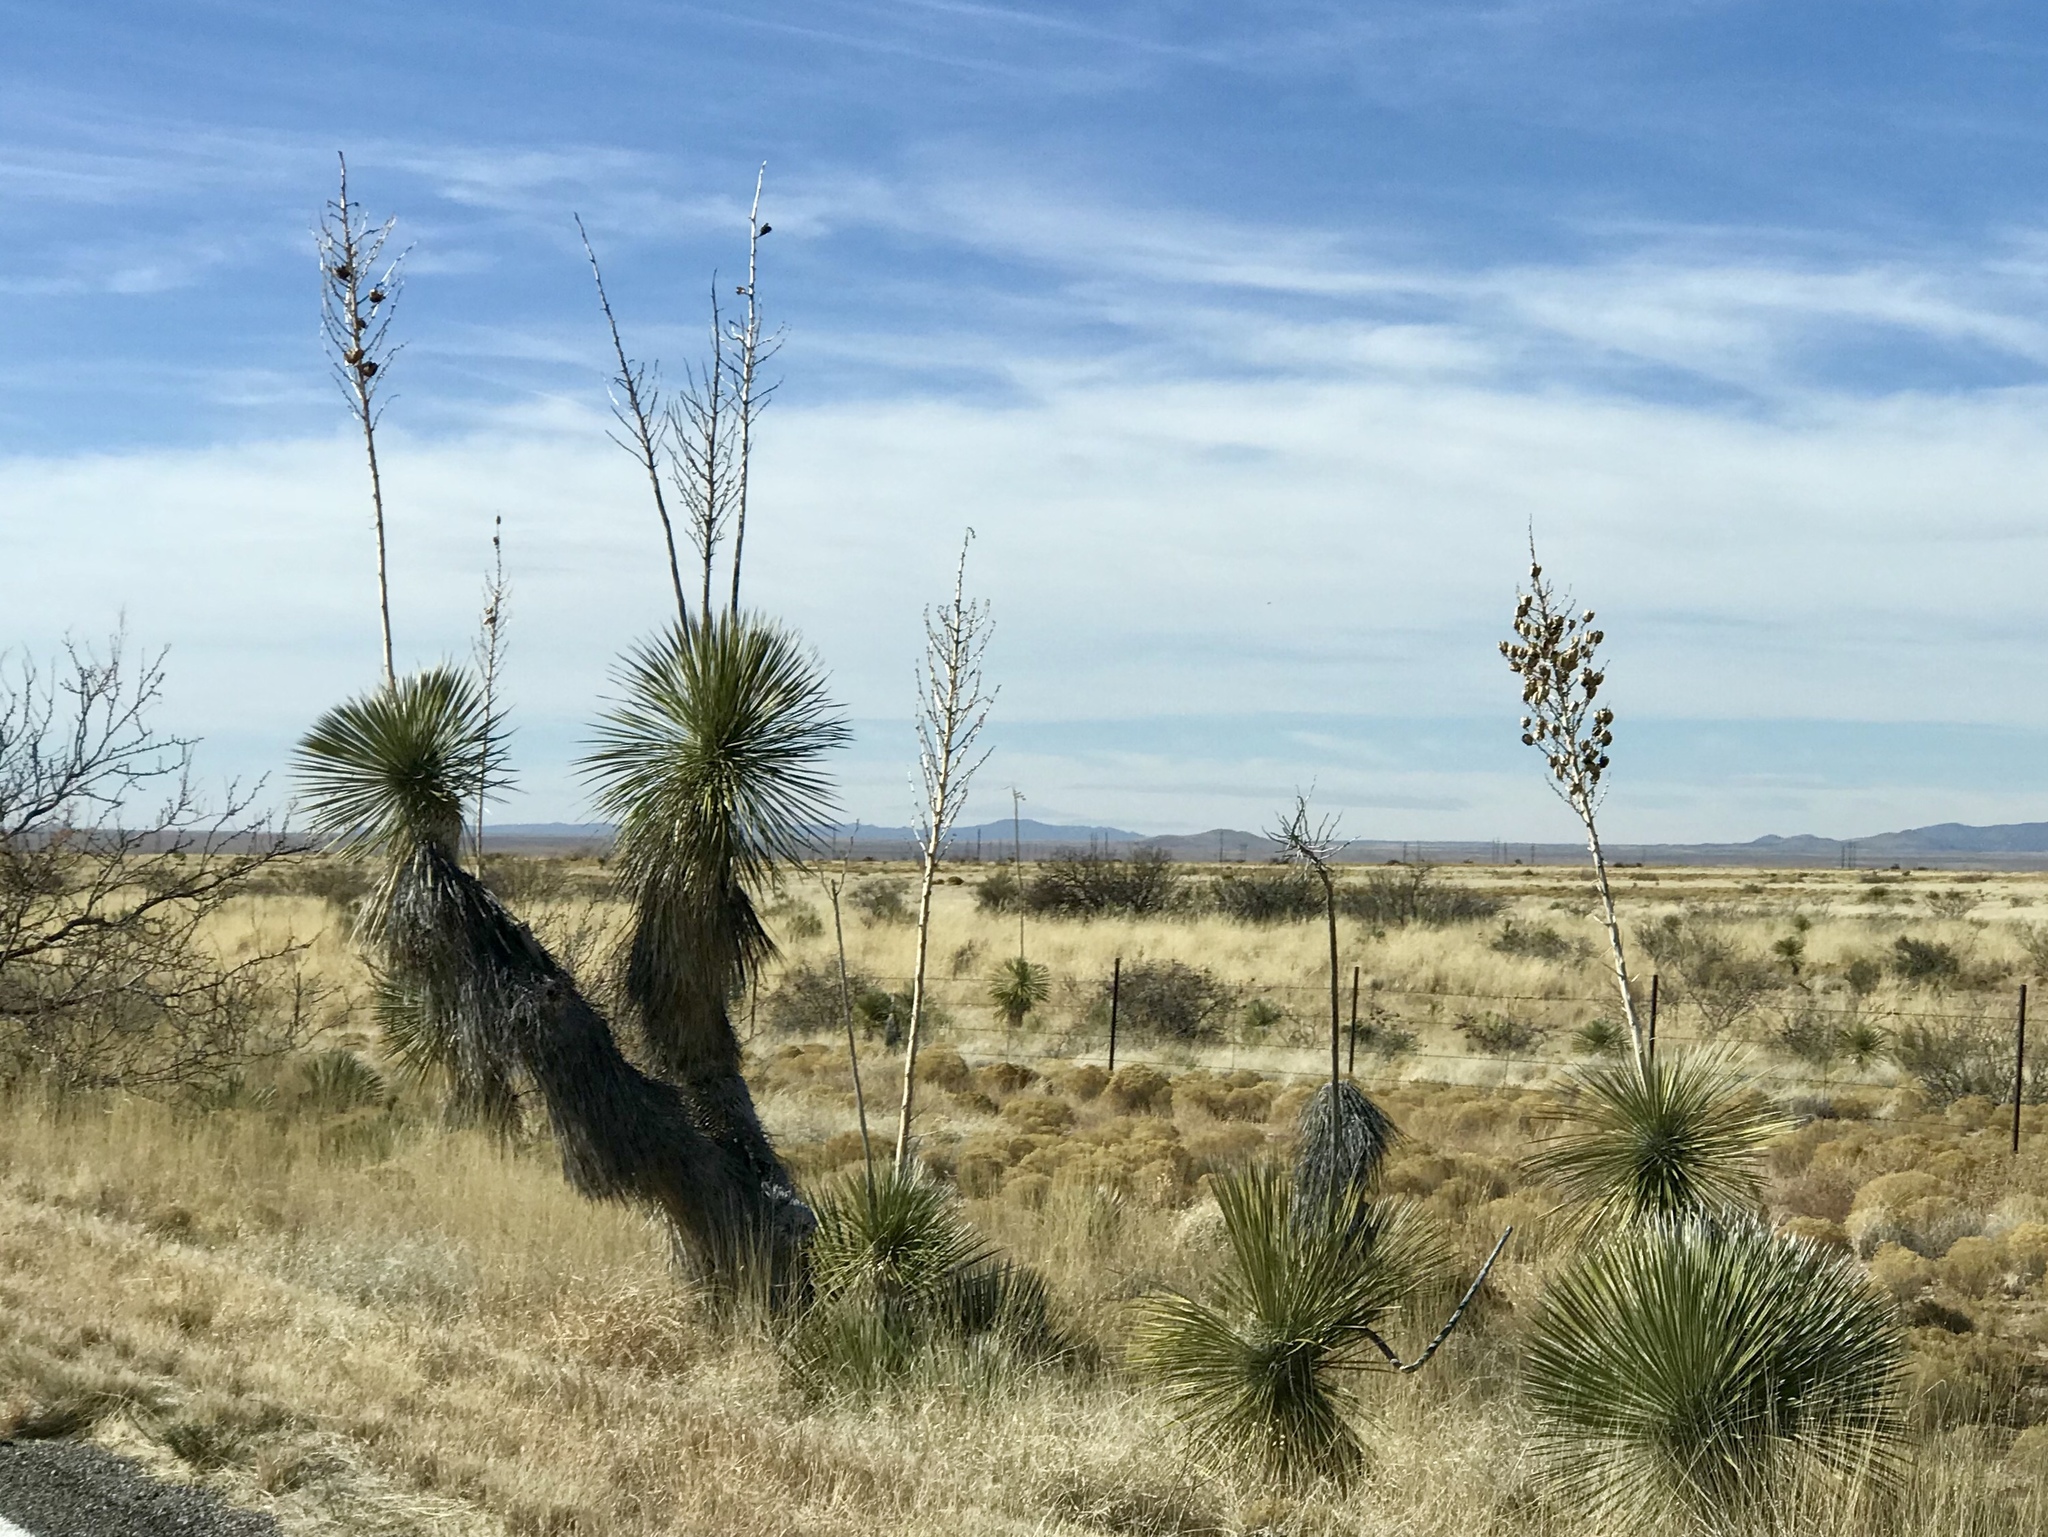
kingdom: Plantae
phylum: Tracheophyta
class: Liliopsida
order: Asparagales
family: Asparagaceae
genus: Yucca
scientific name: Yucca elata
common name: Palmella
